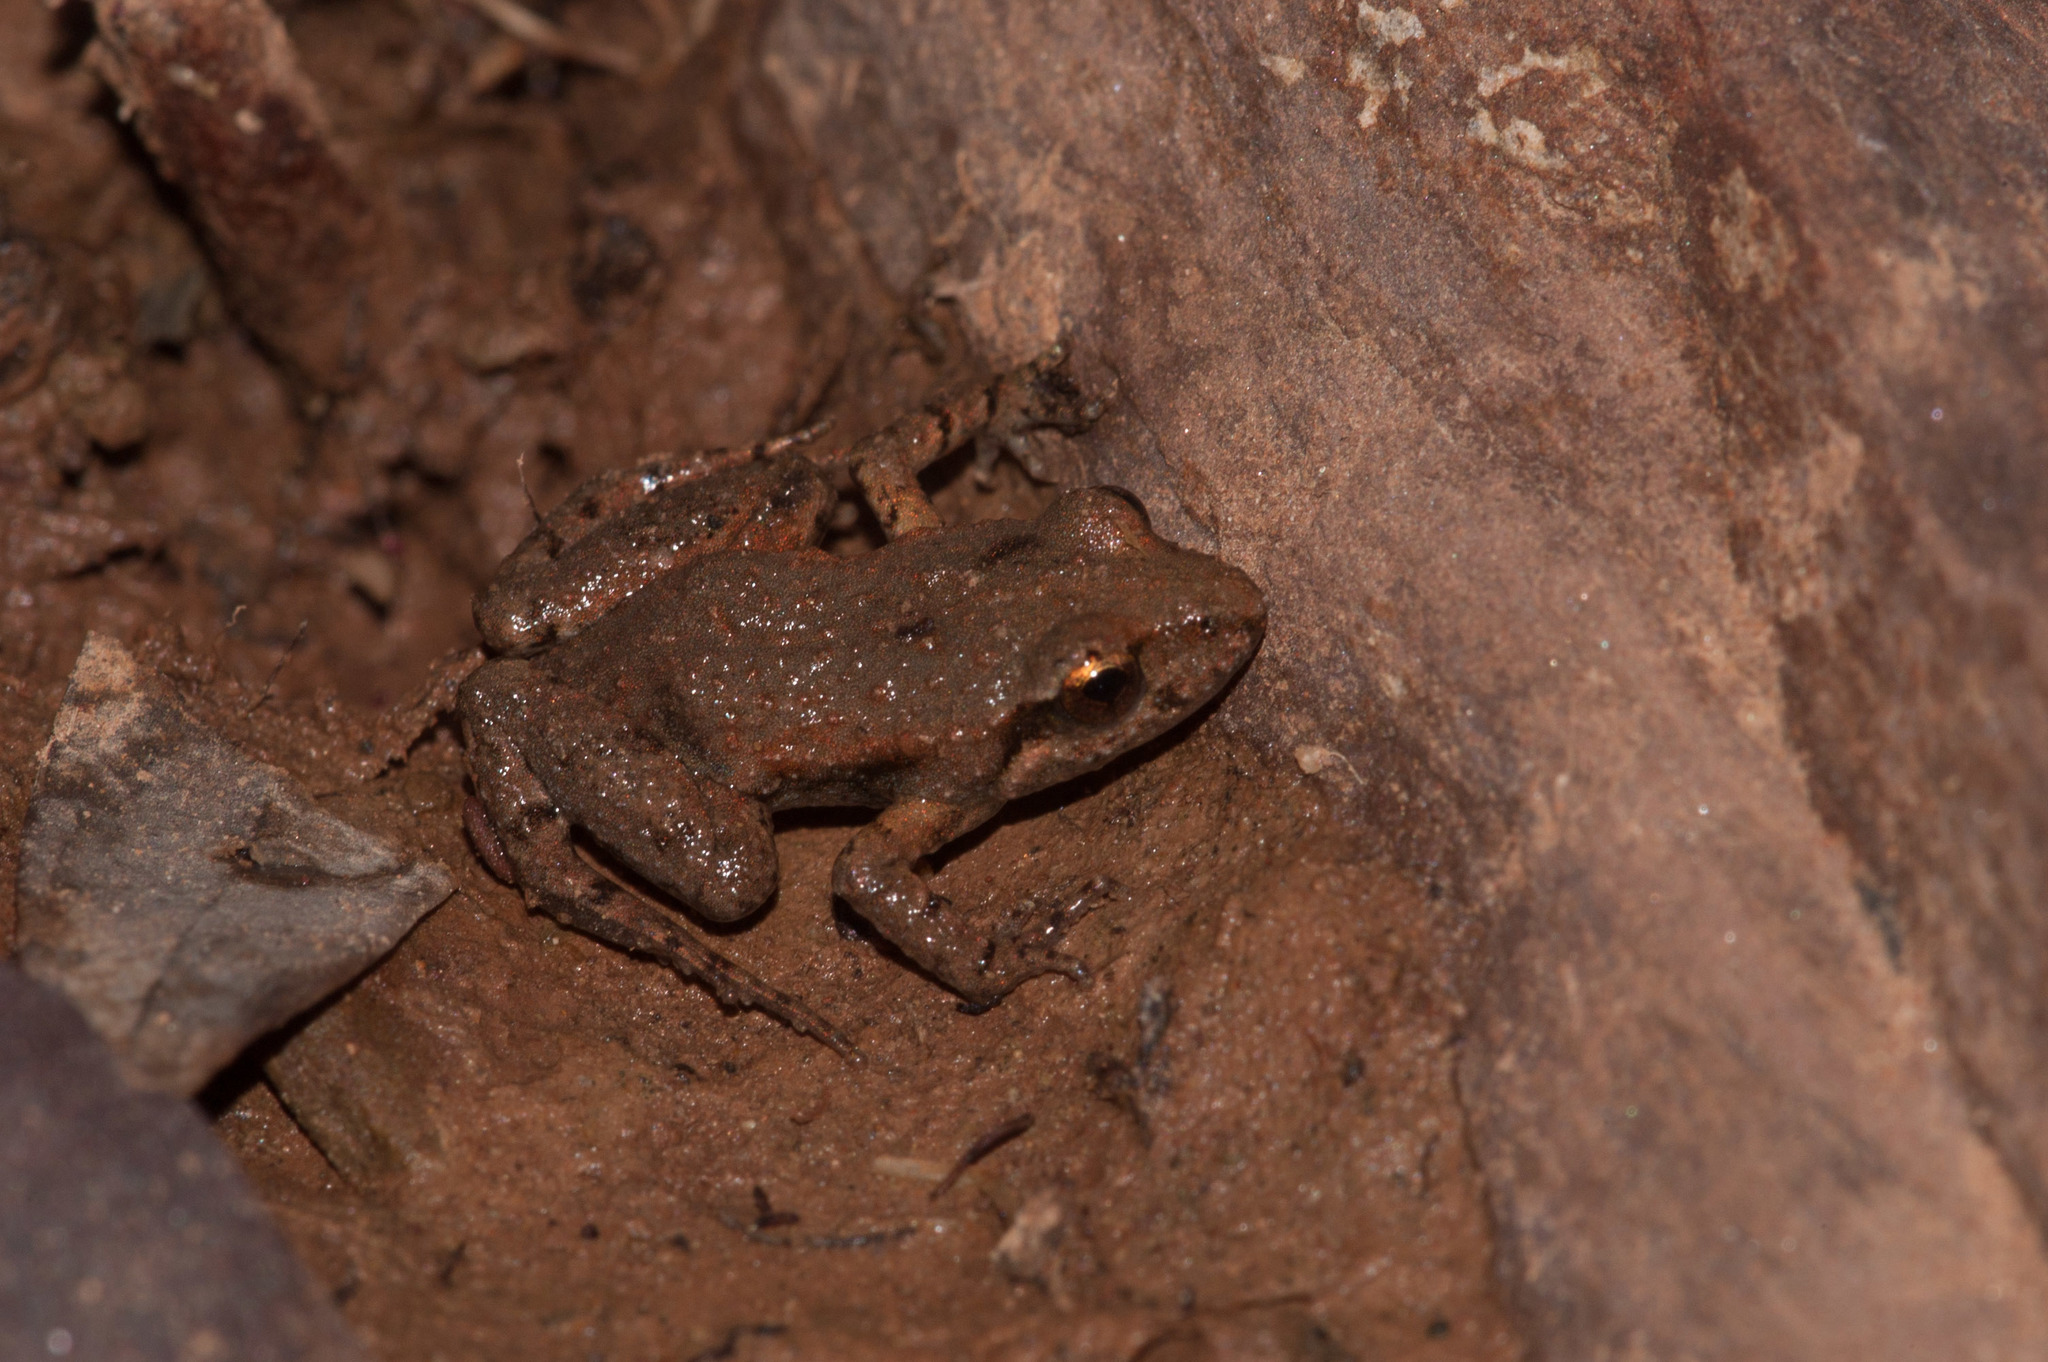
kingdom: Animalia
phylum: Chordata
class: Amphibia
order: Anura
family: Myobatrachidae
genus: Crinia
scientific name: Crinia flindersensis
